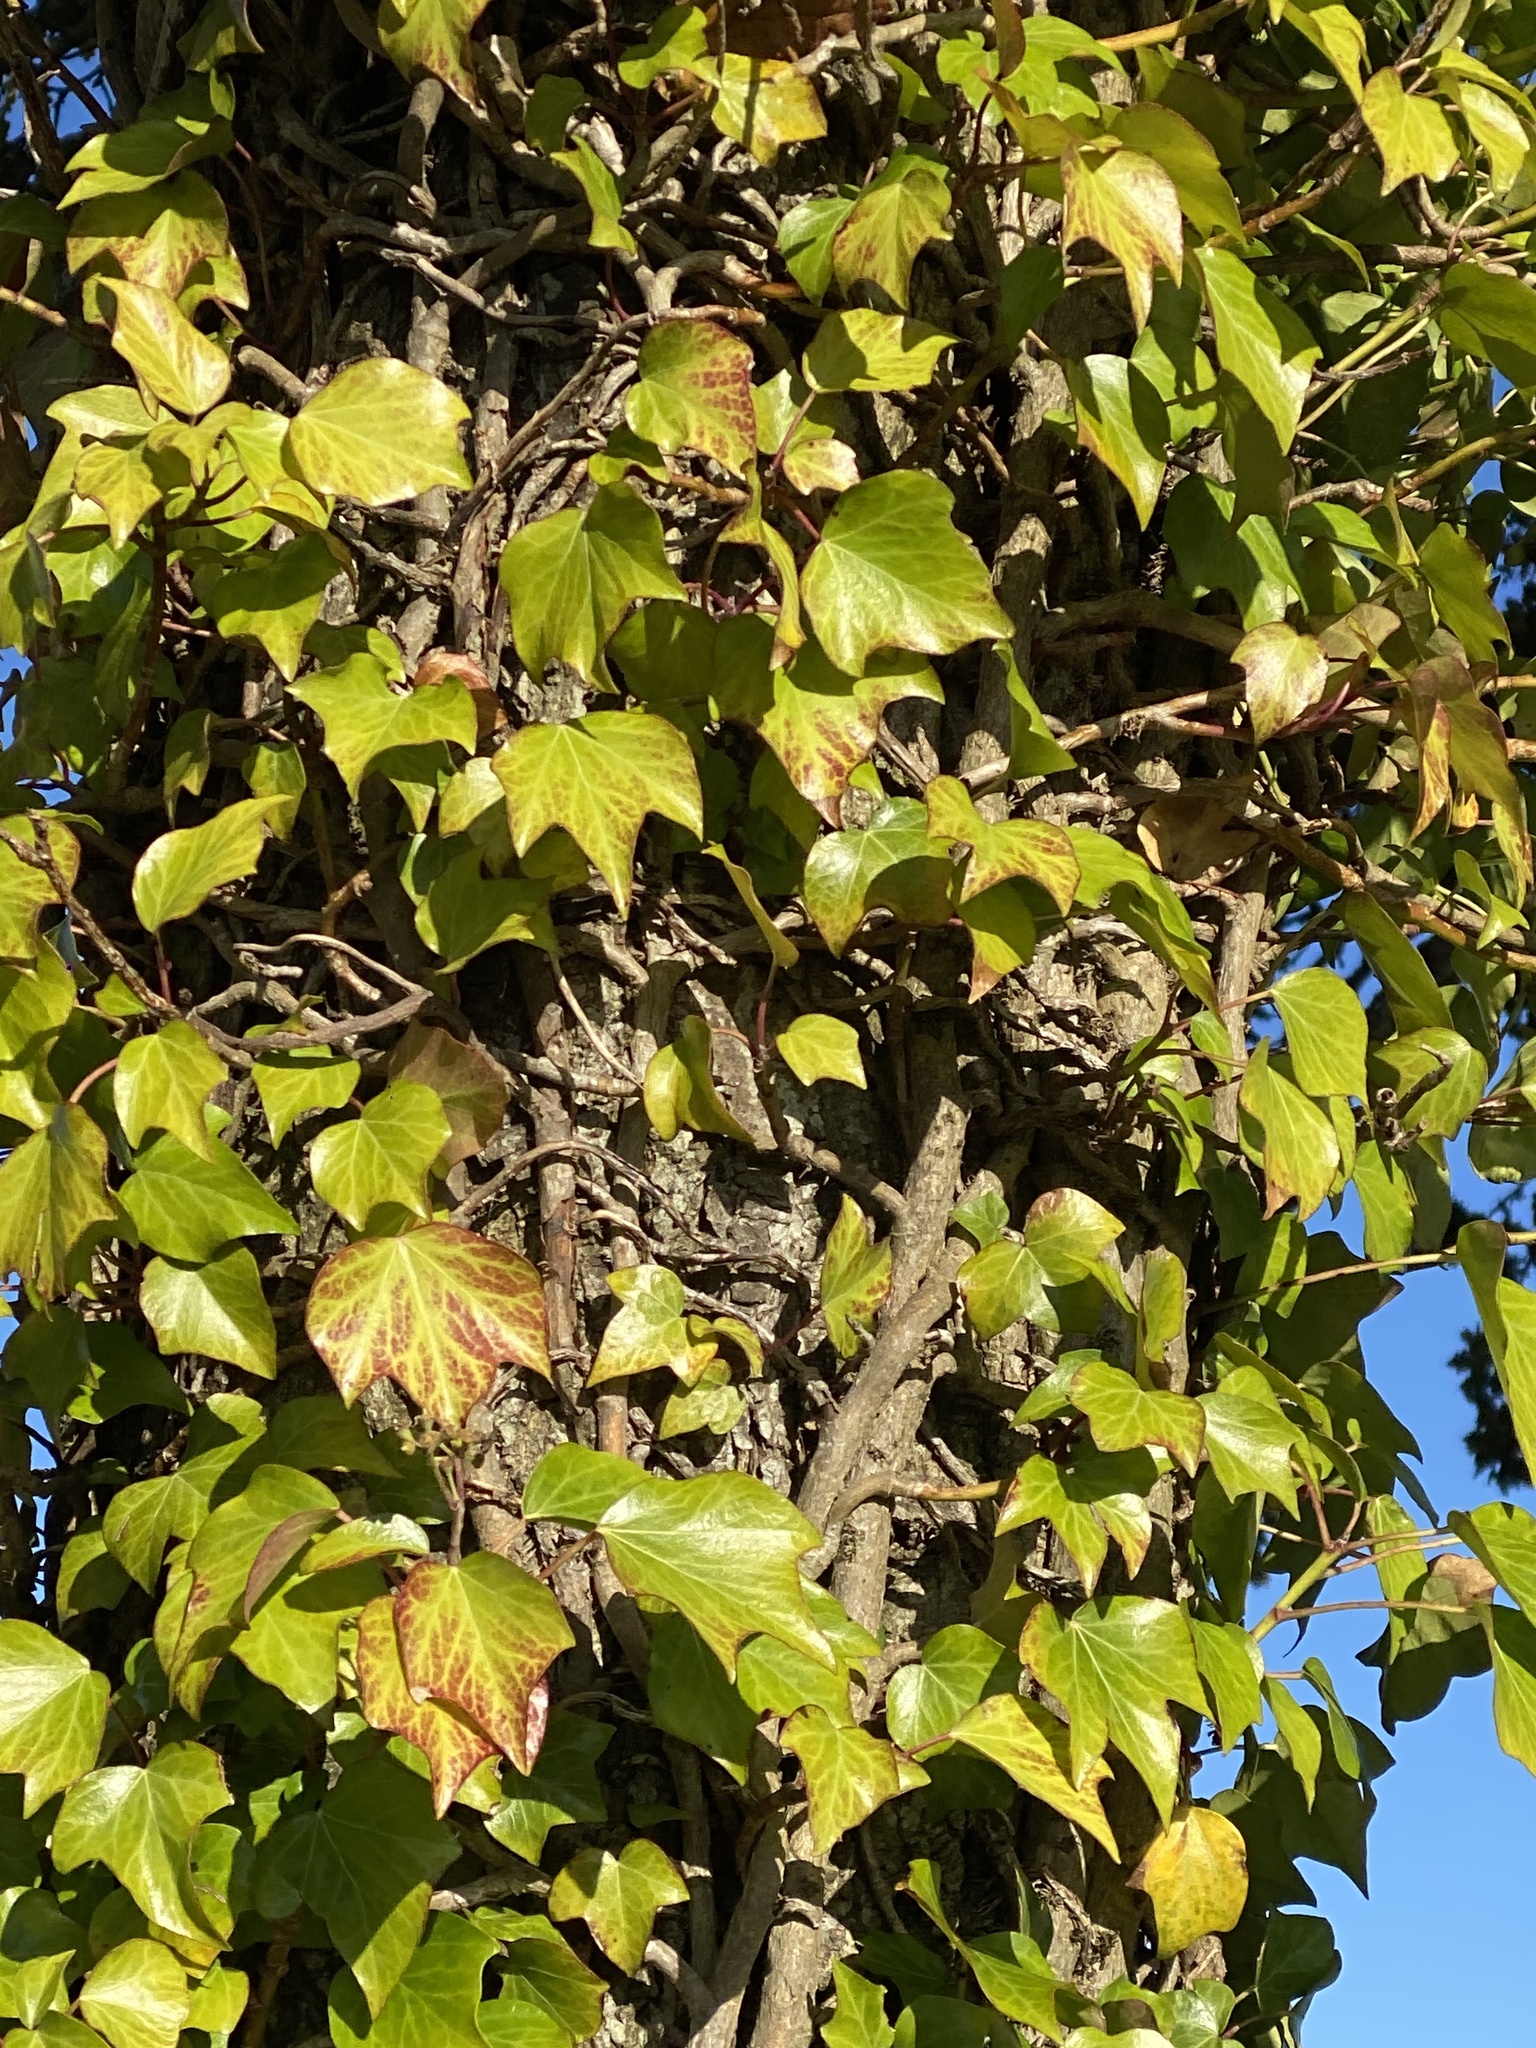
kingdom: Plantae
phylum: Tracheophyta
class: Magnoliopsida
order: Apiales
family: Araliaceae
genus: Hedera
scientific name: Hedera helix
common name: Ivy
